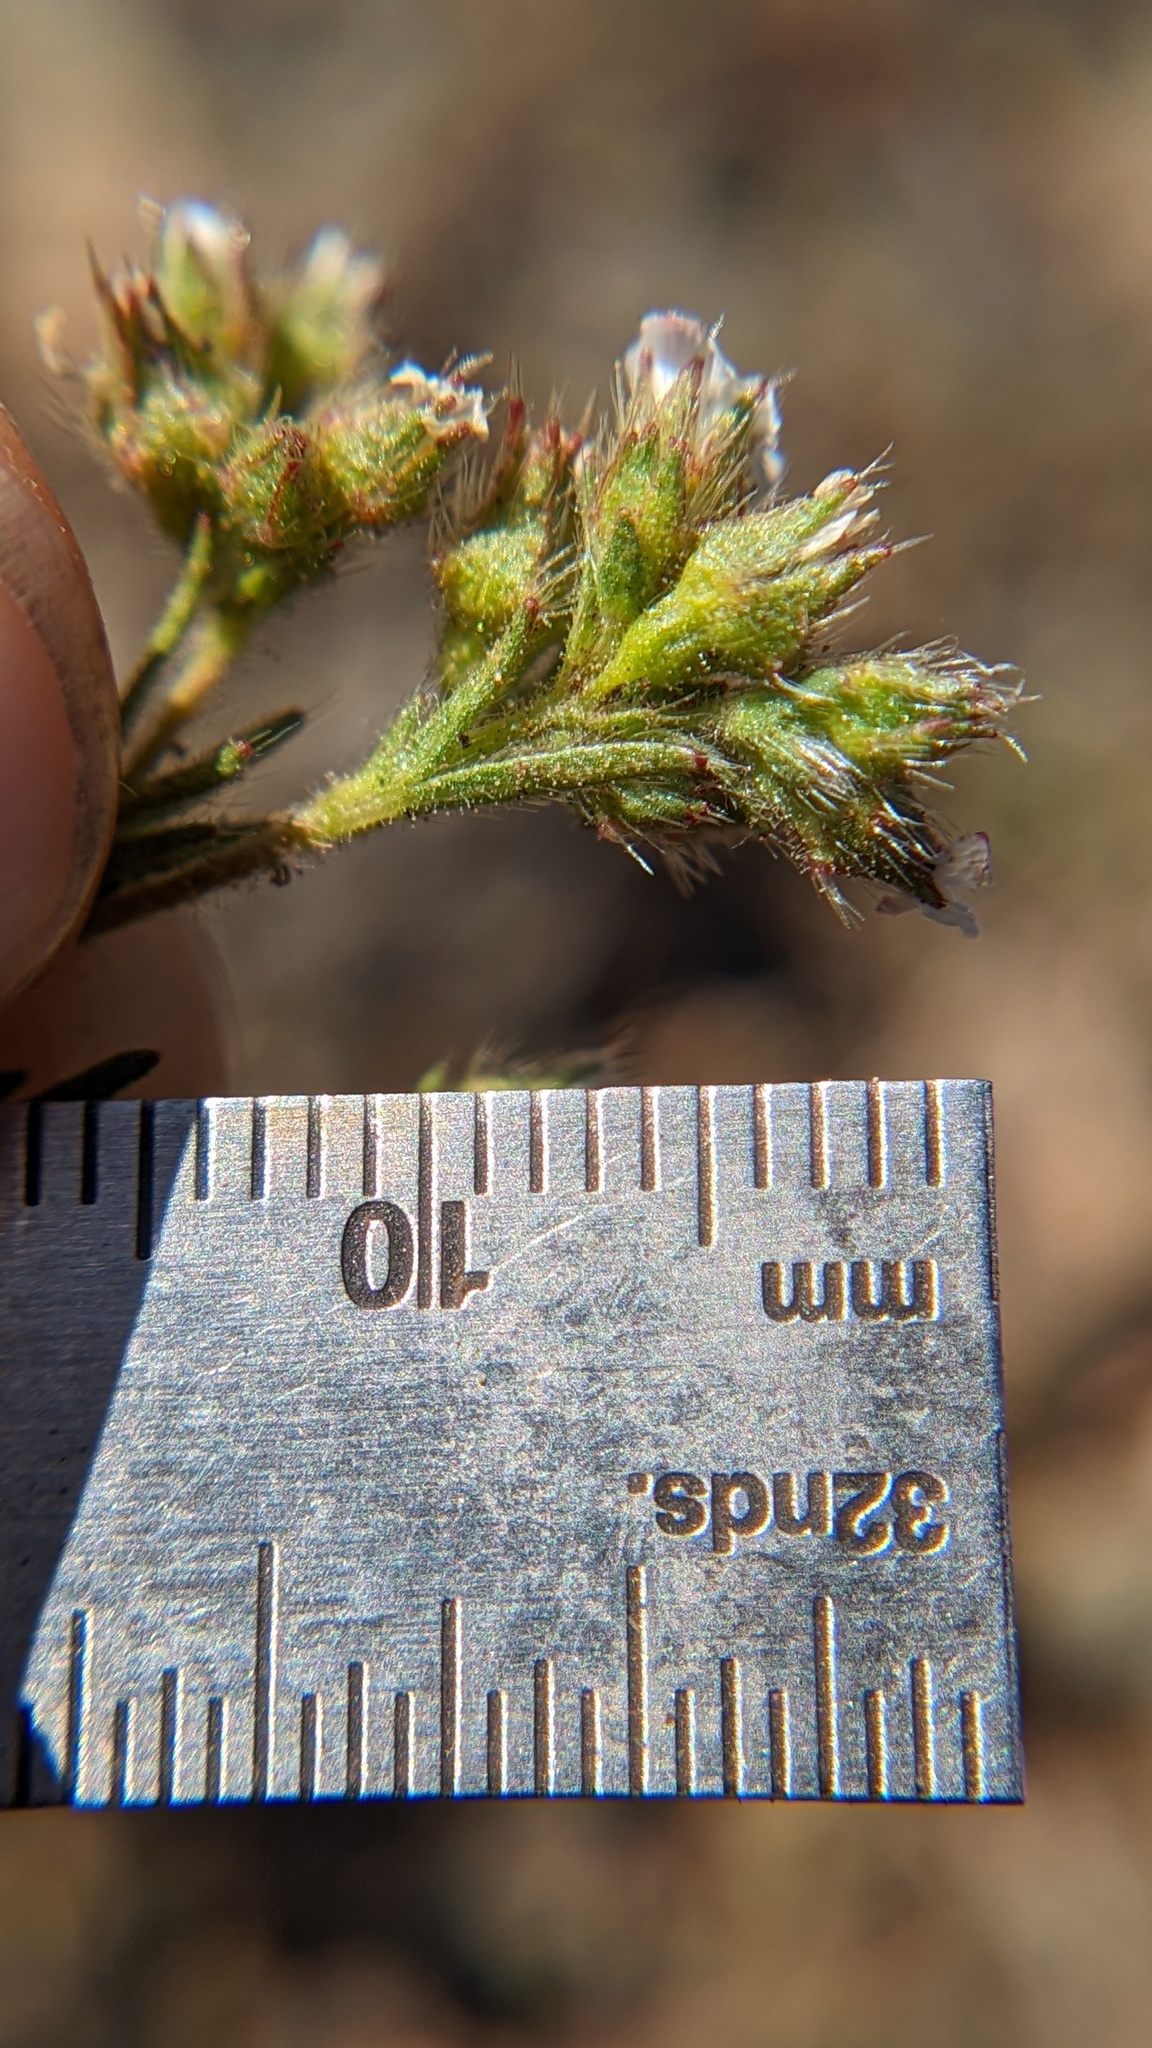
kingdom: Plantae
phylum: Tracheophyta
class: Magnoliopsida
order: Rosales
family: Rosaceae
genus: Chamaerhodos
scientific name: Chamaerhodos erecta
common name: American chamaerhodos
